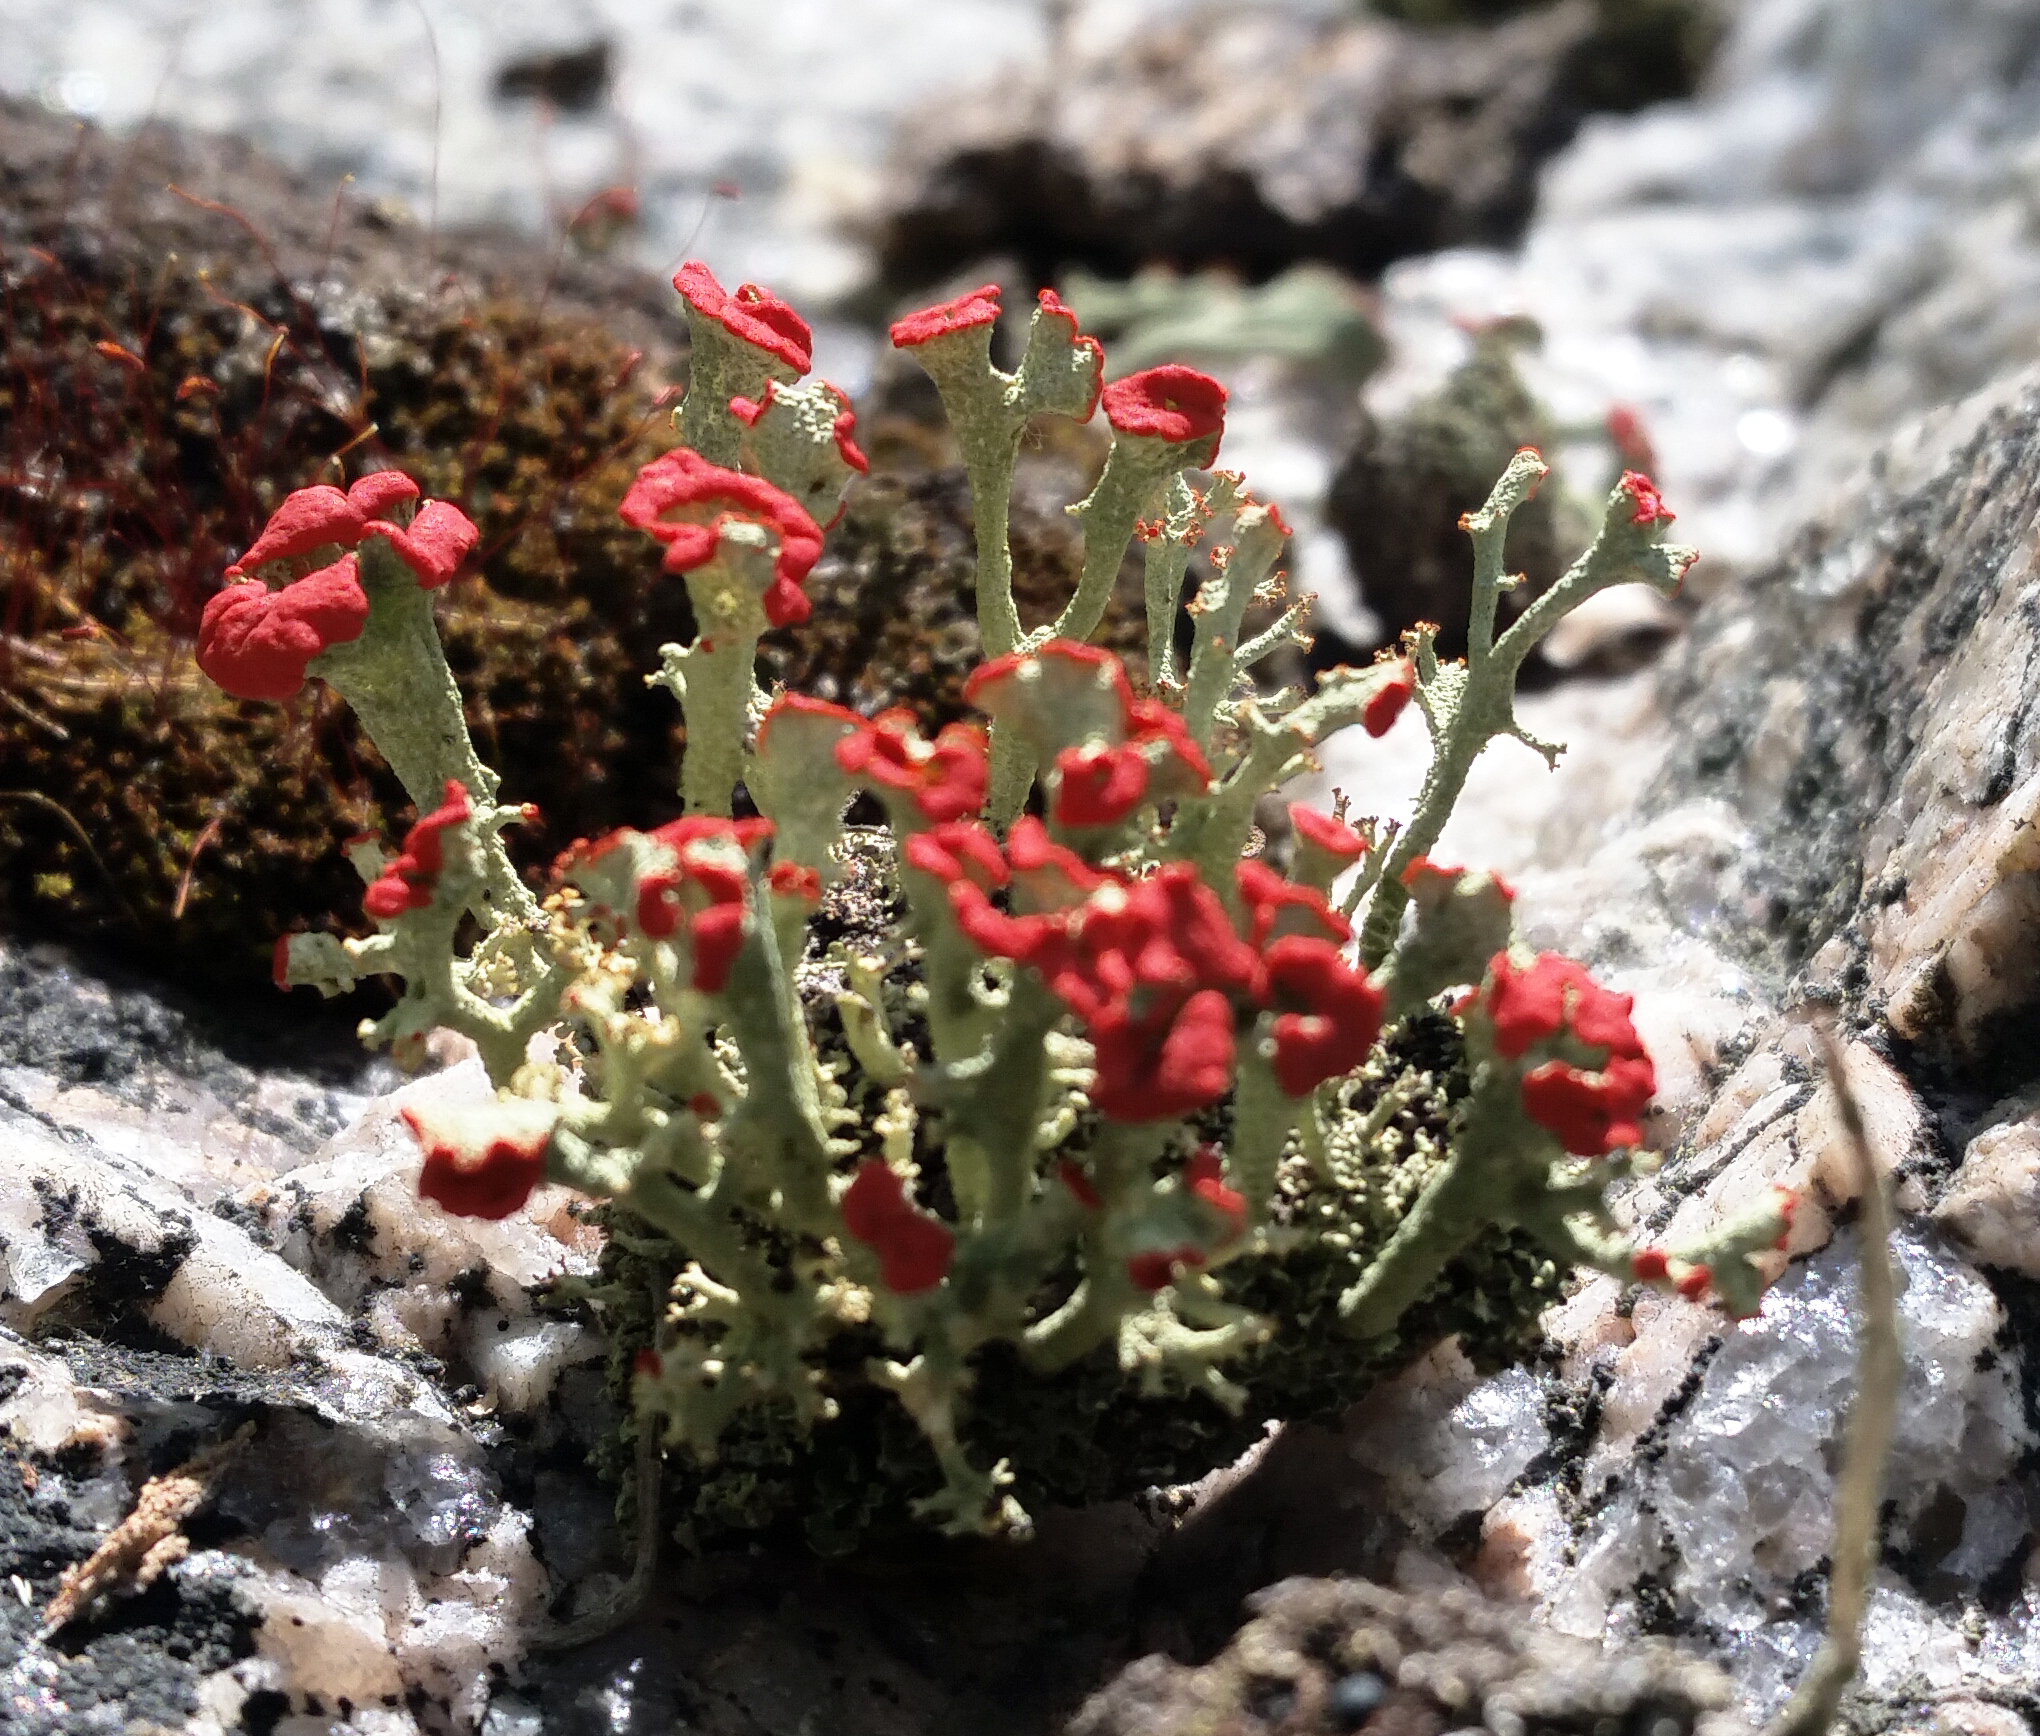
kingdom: Fungi
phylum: Ascomycota
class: Lecanoromycetes
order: Lecanorales
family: Cladoniaceae
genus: Cladonia
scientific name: Cladonia cristatella
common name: British soldier lichen
